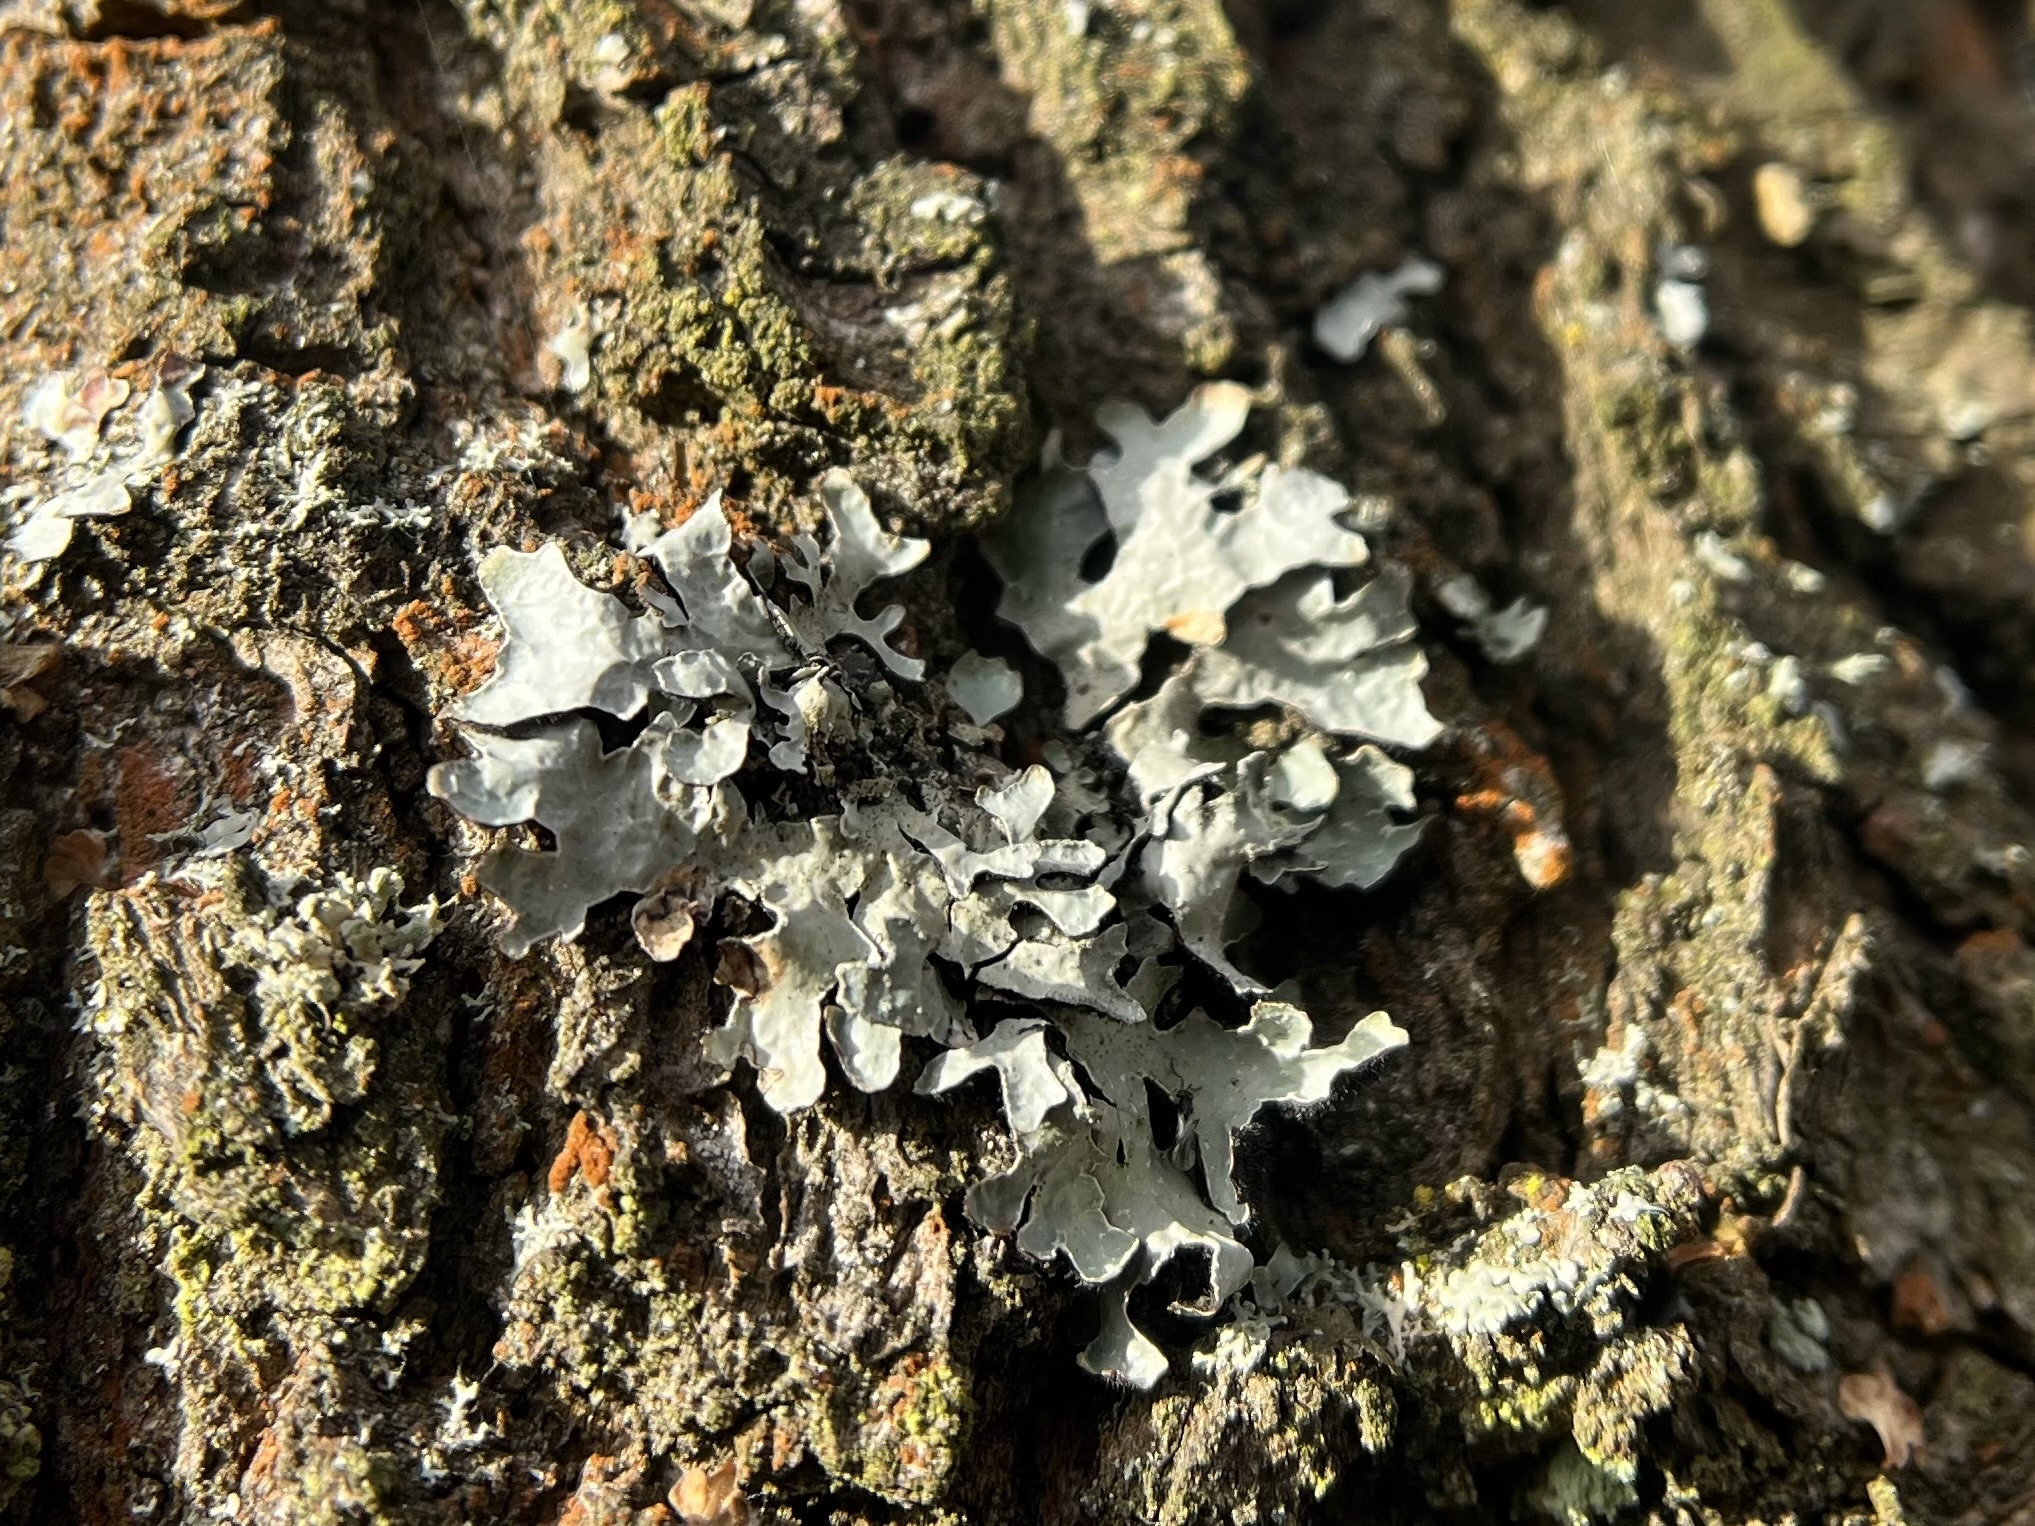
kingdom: Fungi
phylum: Ascomycota
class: Lecanoromycetes
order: Lecanorales
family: Parmeliaceae
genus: Parmelia
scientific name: Parmelia sulcata
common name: Netted shield lichen
